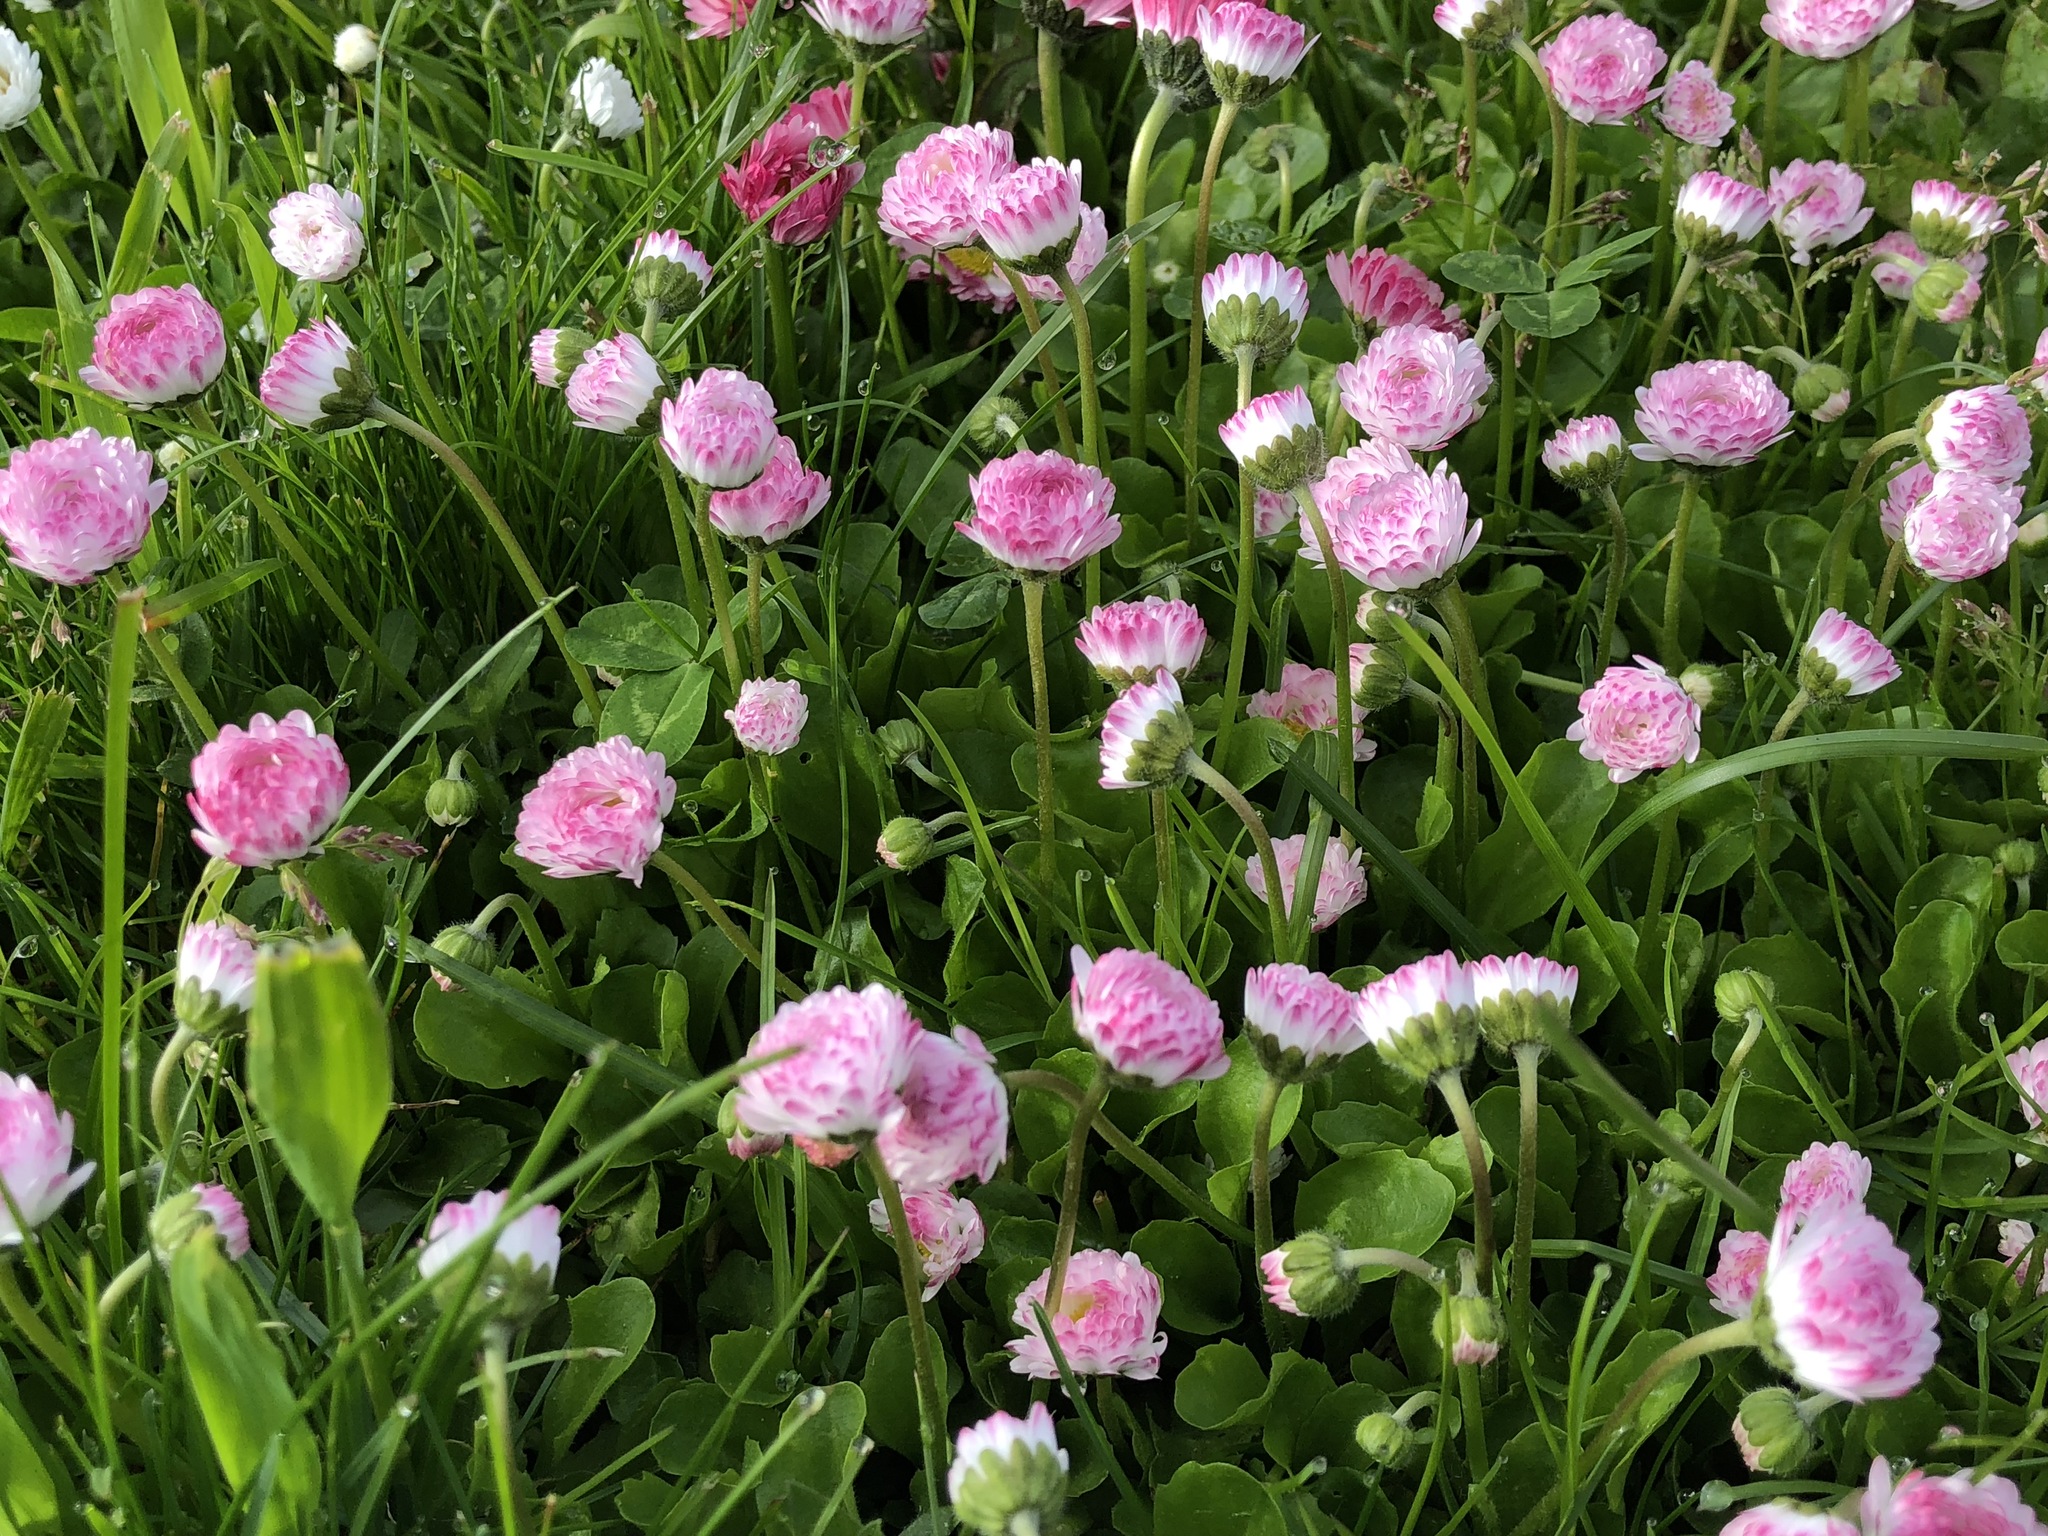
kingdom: Plantae
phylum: Tracheophyta
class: Magnoliopsida
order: Asterales
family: Asteraceae
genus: Bellis
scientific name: Bellis perennis
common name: Lawndaisy
